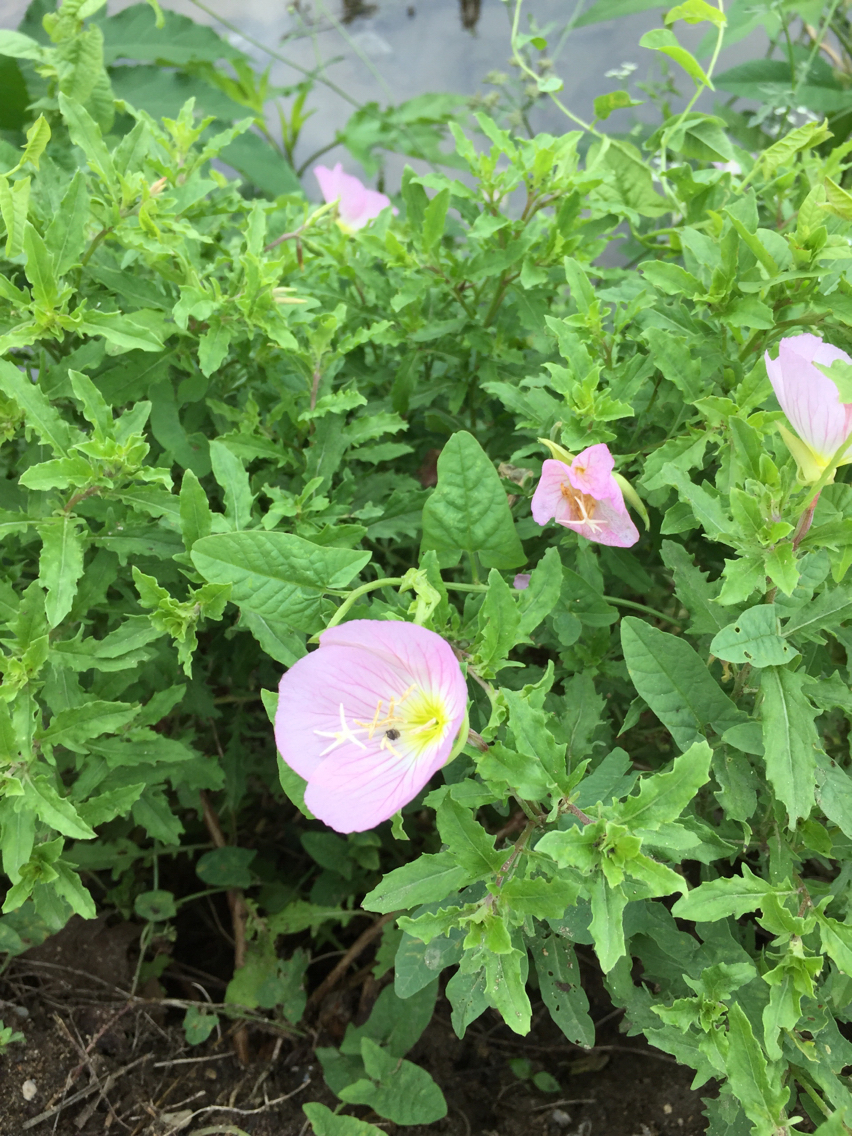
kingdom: Plantae
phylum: Tracheophyta
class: Magnoliopsida
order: Myrtales
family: Onagraceae
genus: Oenothera
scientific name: Oenothera speciosa
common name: White evening-primrose
